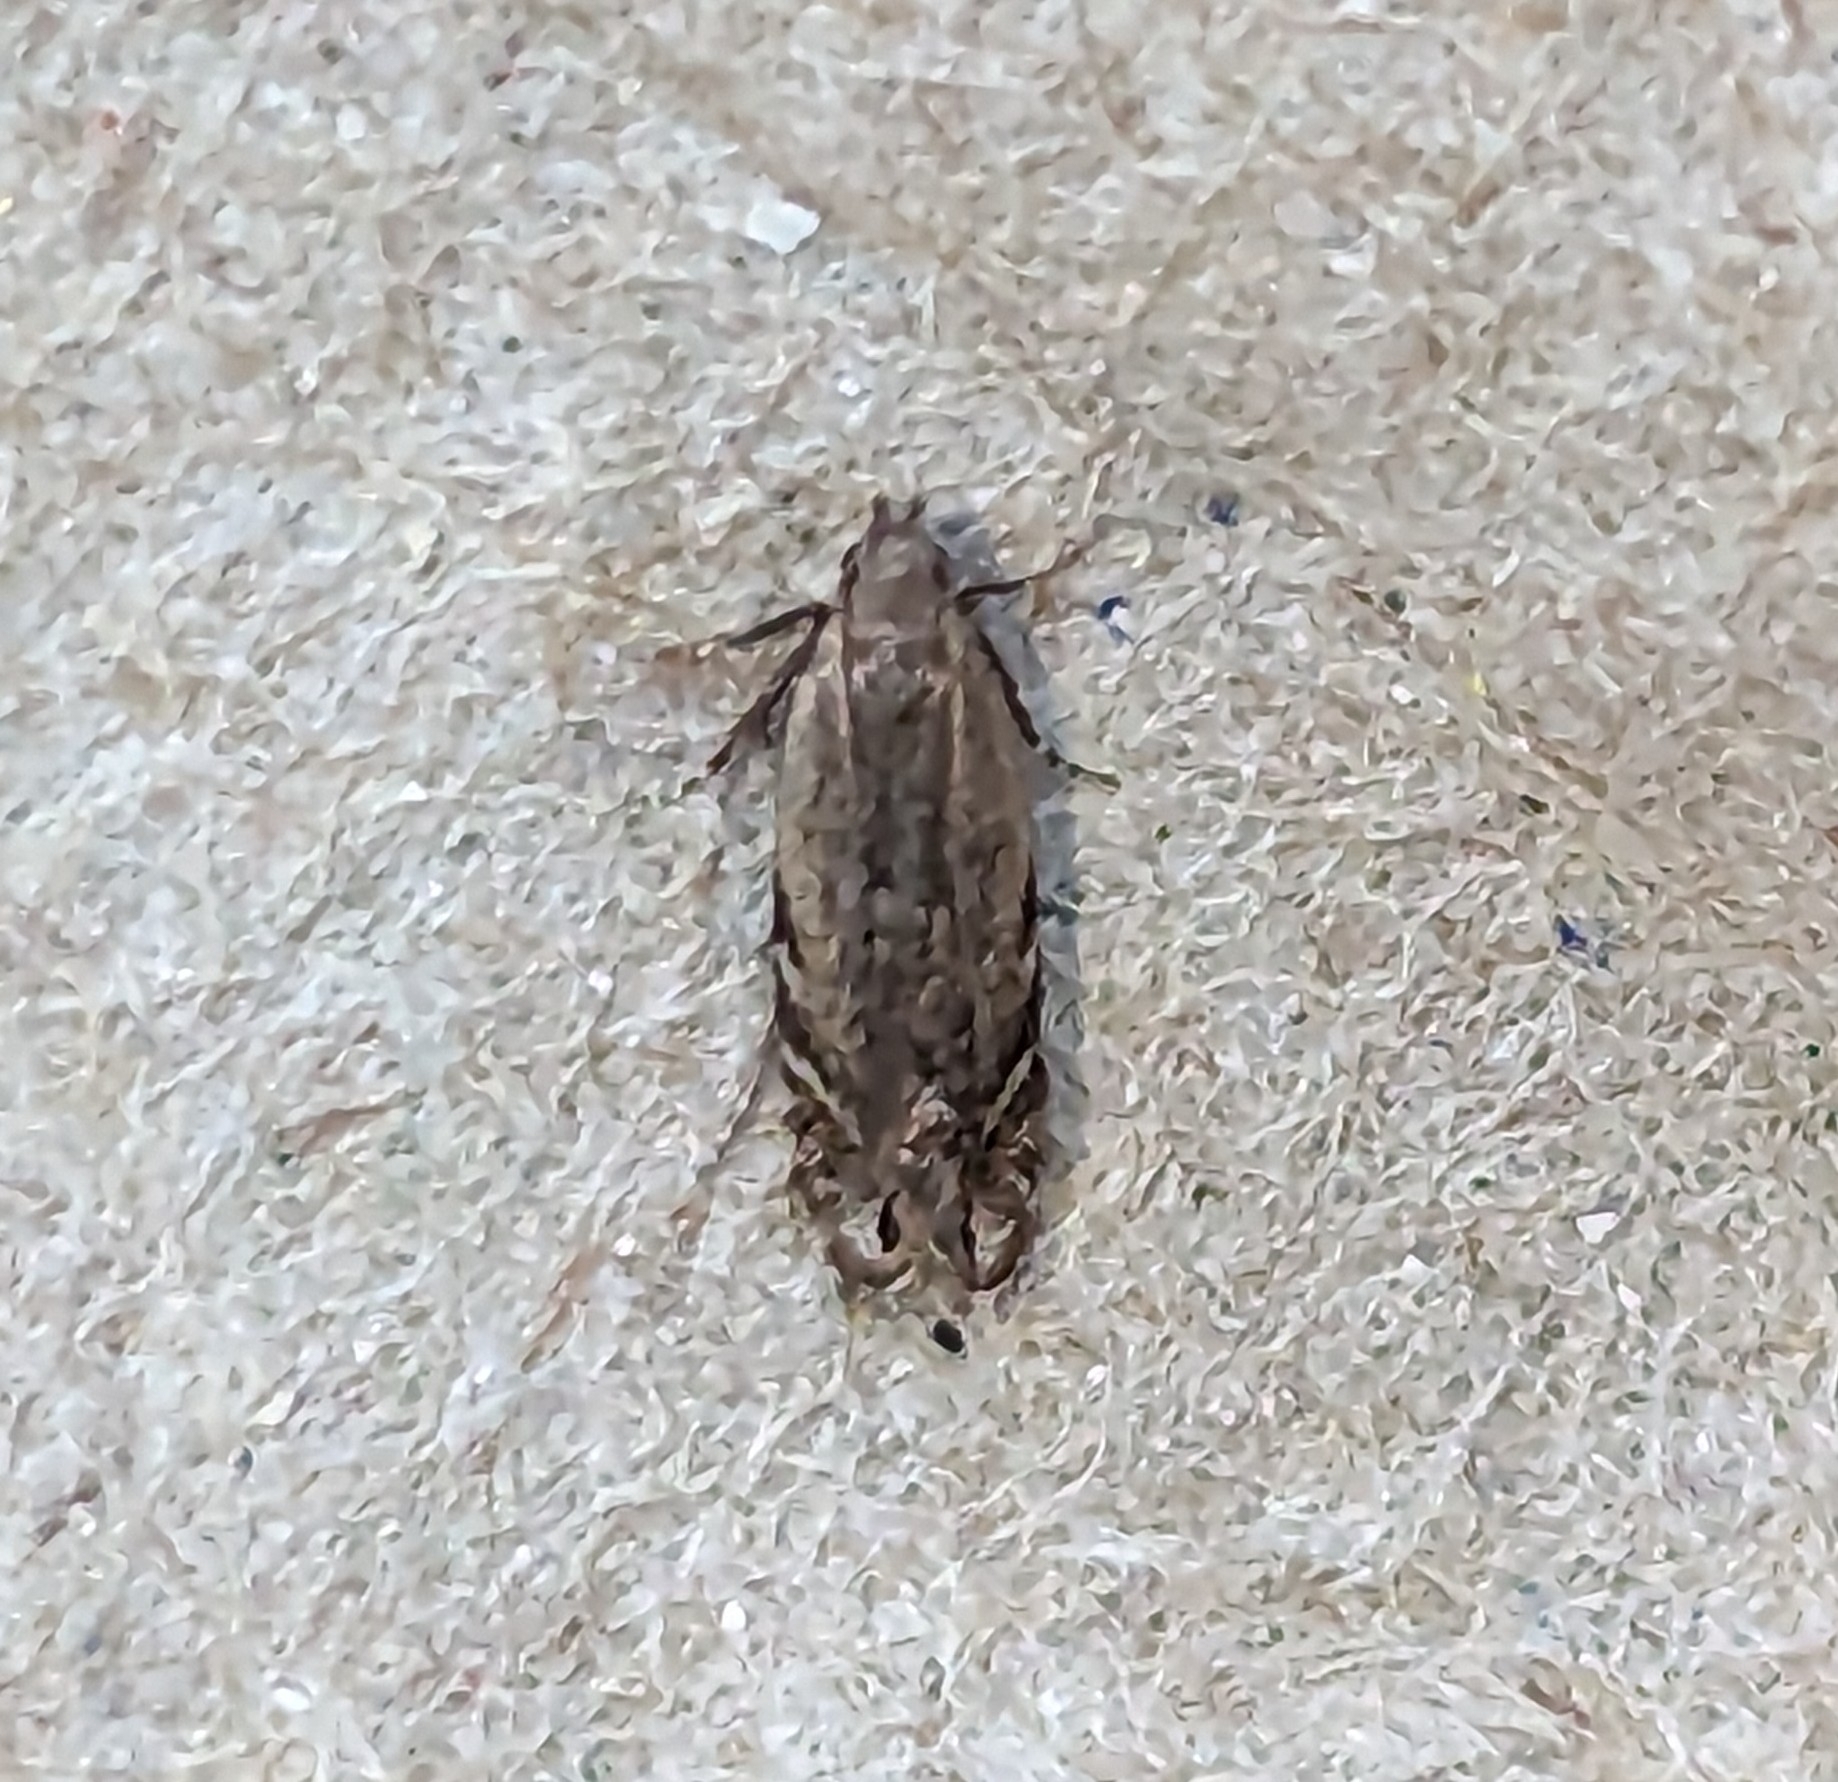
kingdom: Animalia
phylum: Arthropoda
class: Insecta
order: Lepidoptera
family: Gelechiidae
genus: Battaristis
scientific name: Battaristis concinnusella
